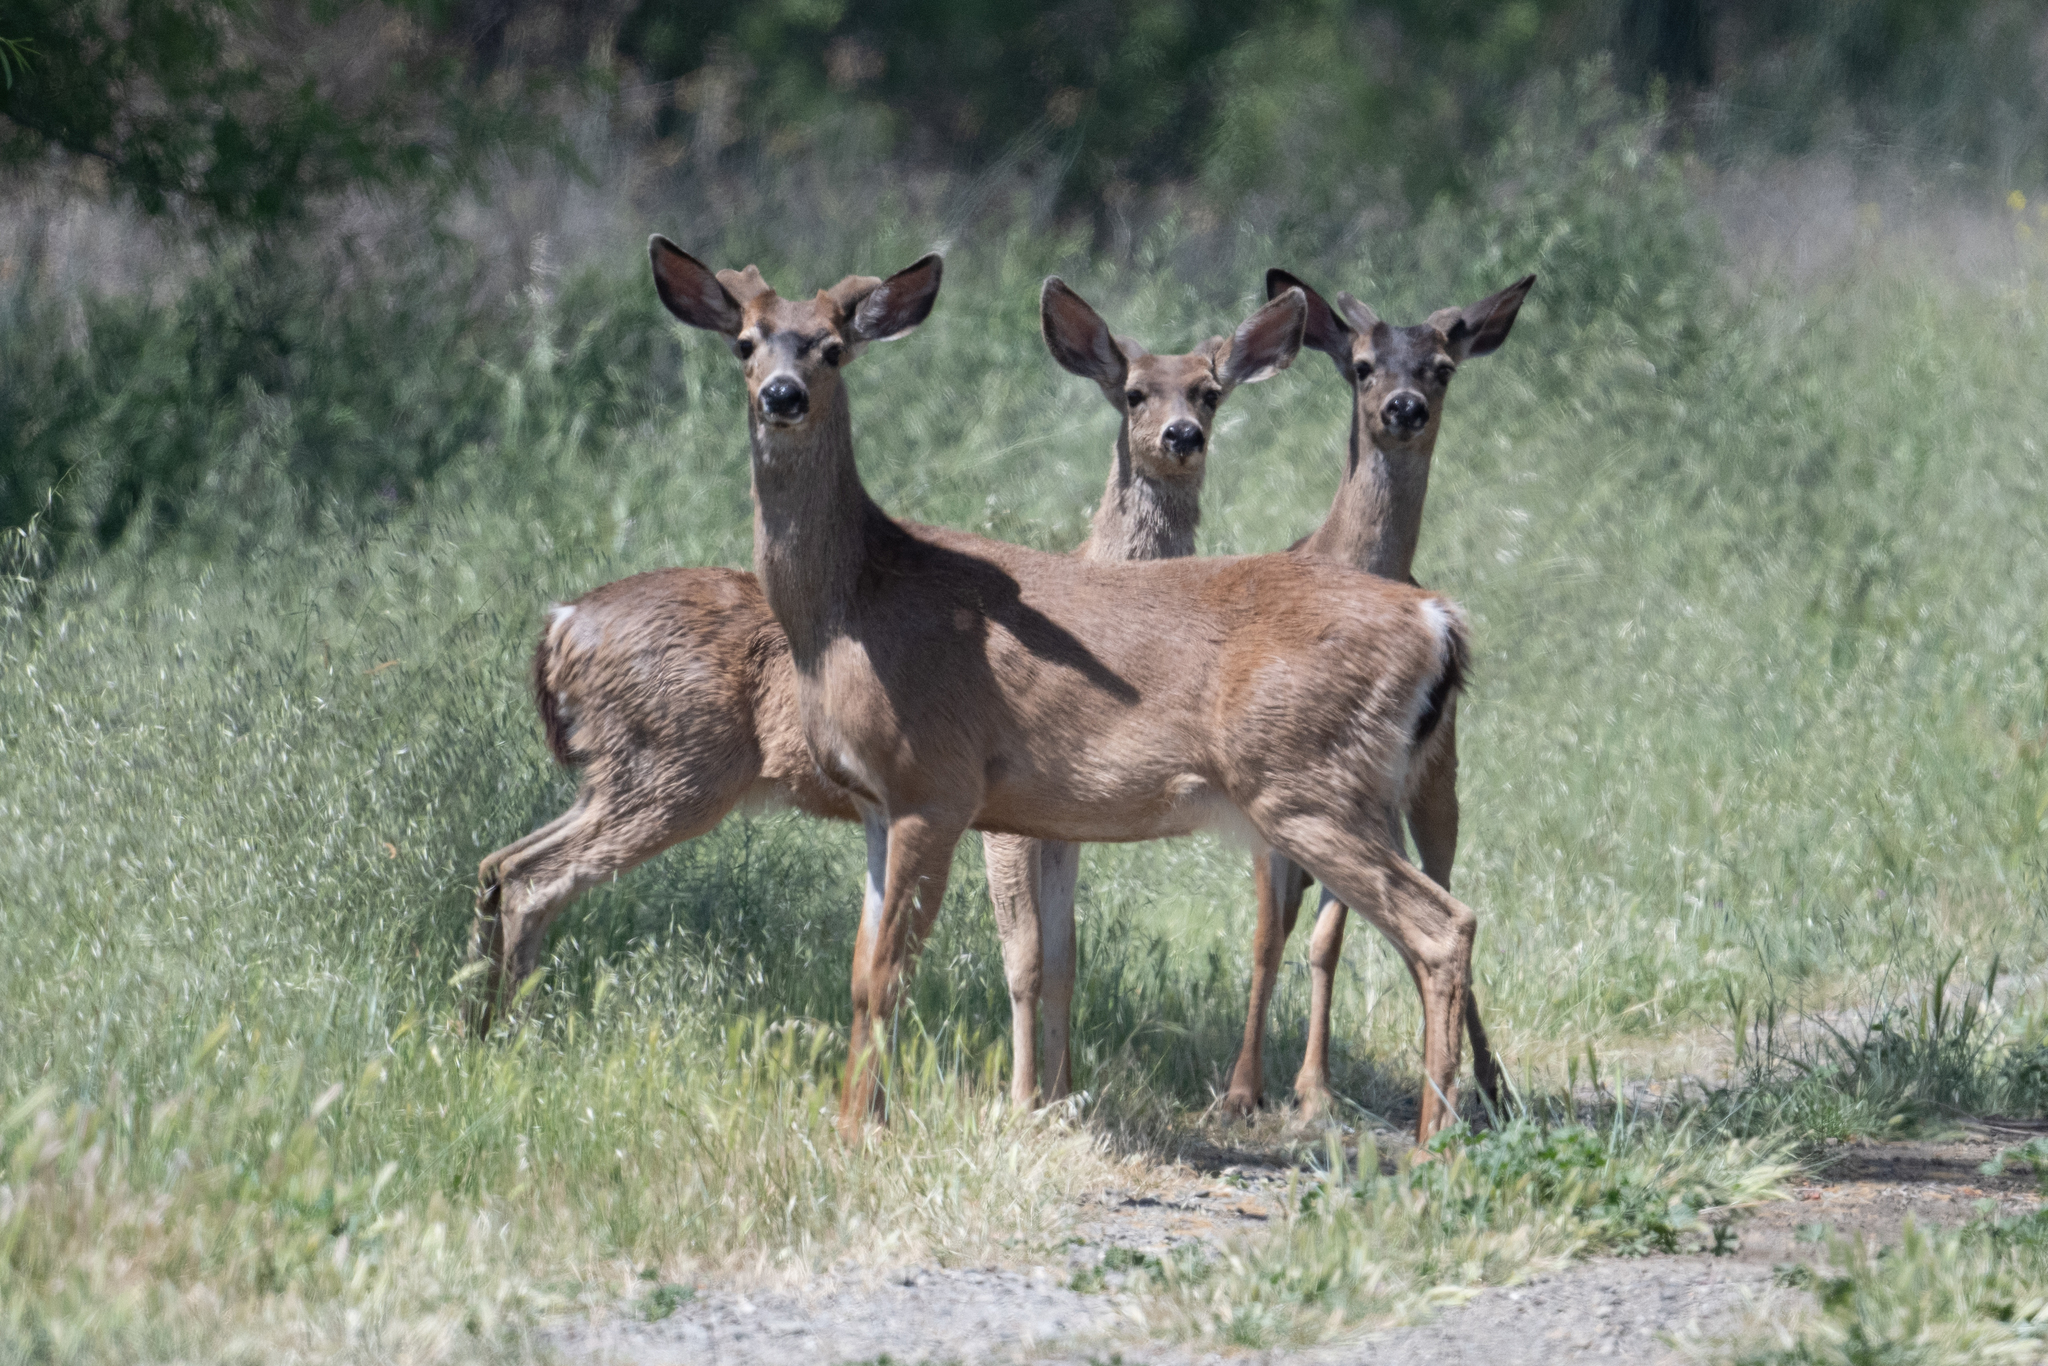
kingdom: Animalia
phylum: Chordata
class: Mammalia
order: Artiodactyla
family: Cervidae
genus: Odocoileus
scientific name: Odocoileus hemionus
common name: Mule deer
